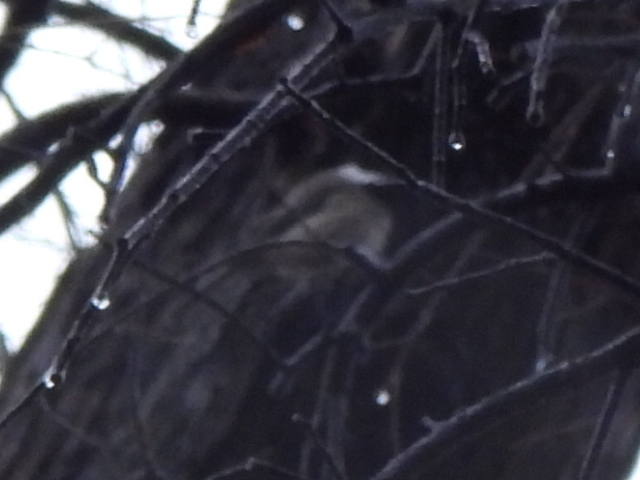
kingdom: Animalia
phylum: Chordata
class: Aves
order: Passeriformes
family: Paridae
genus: Poecile
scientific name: Poecile carolinensis
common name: Carolina chickadee
